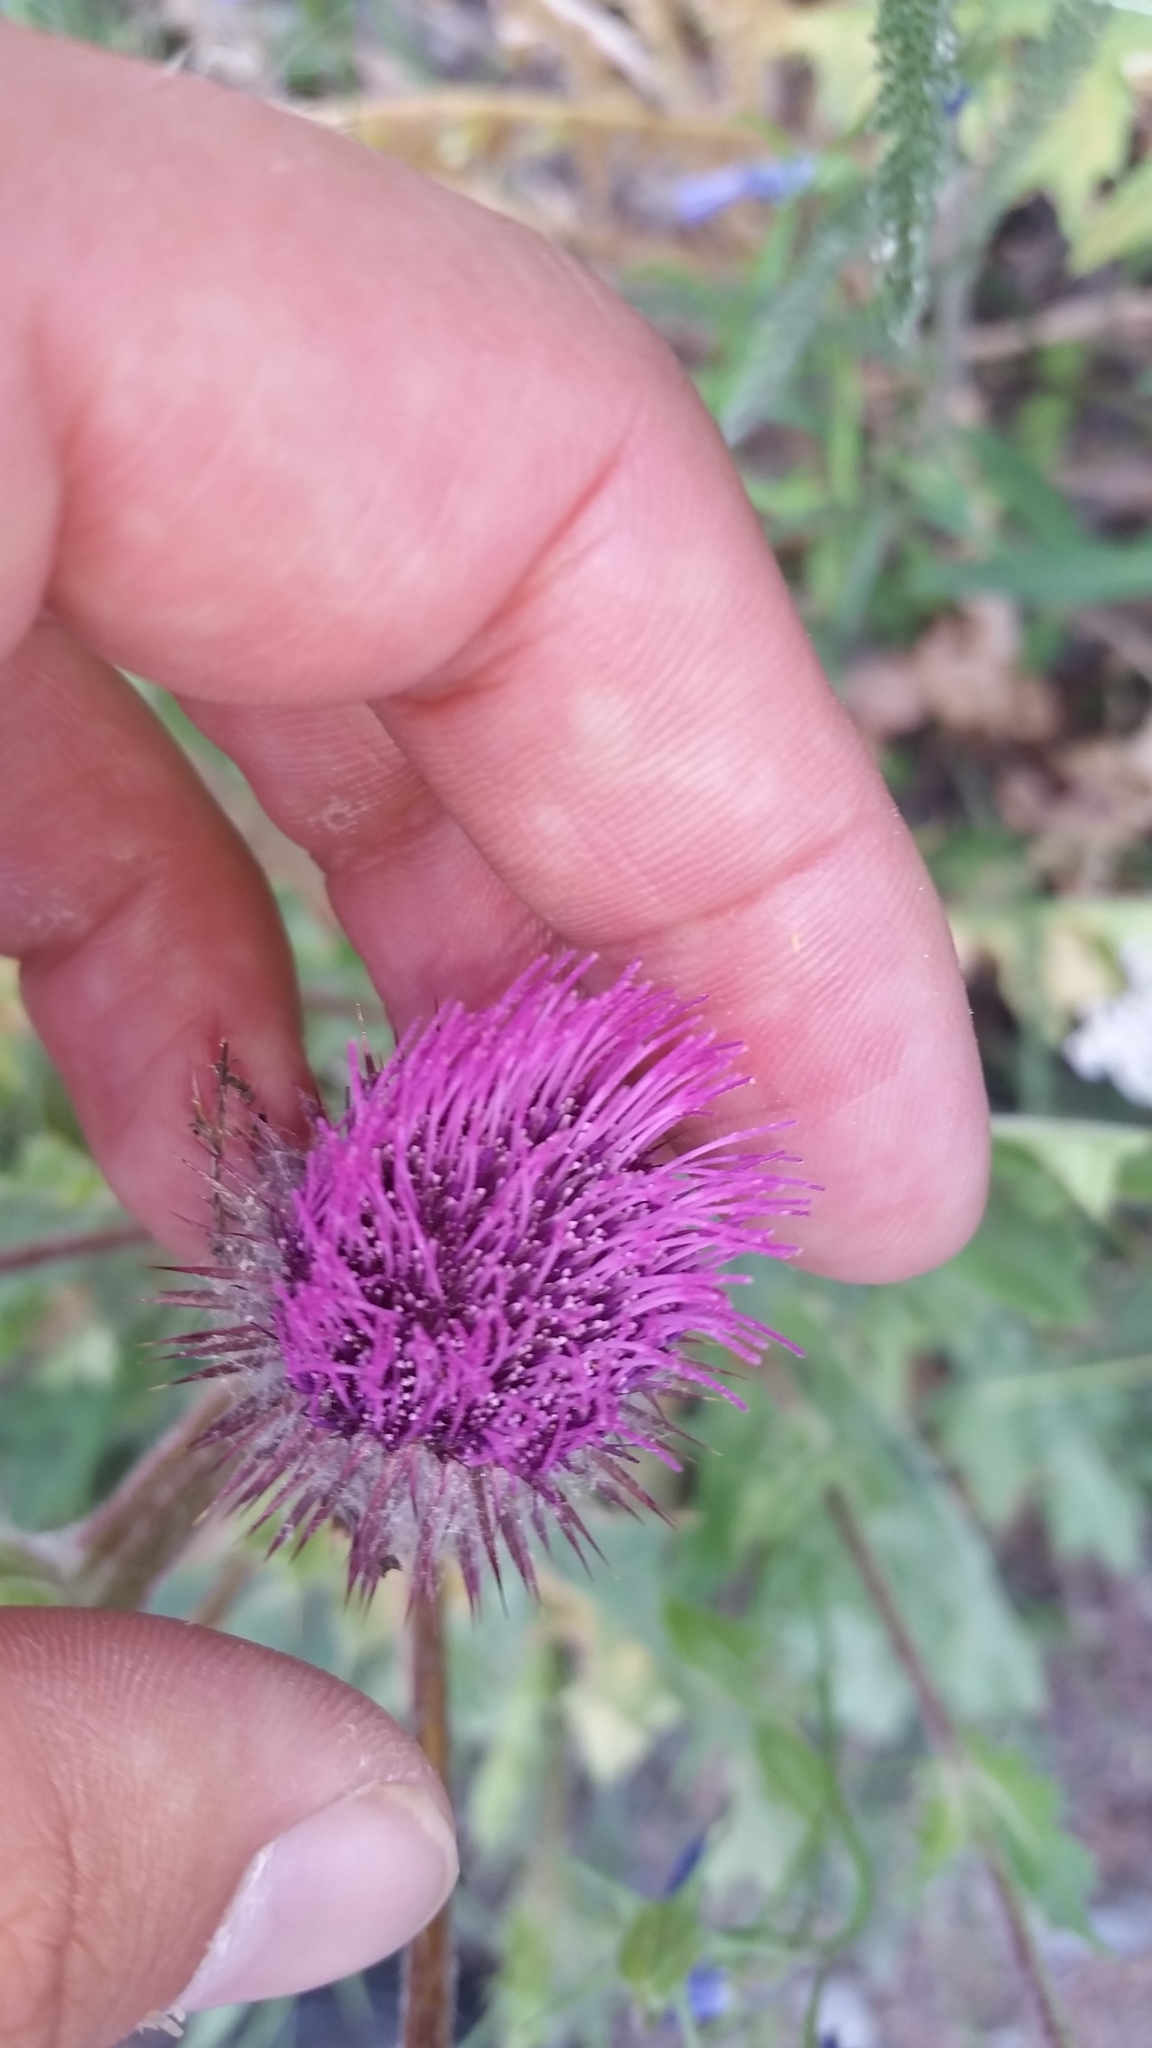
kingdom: Plantae
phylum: Tracheophyta
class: Magnoliopsida
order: Asterales
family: Asteraceae
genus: Cirsium
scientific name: Cirsium edule
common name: Indian thistle
